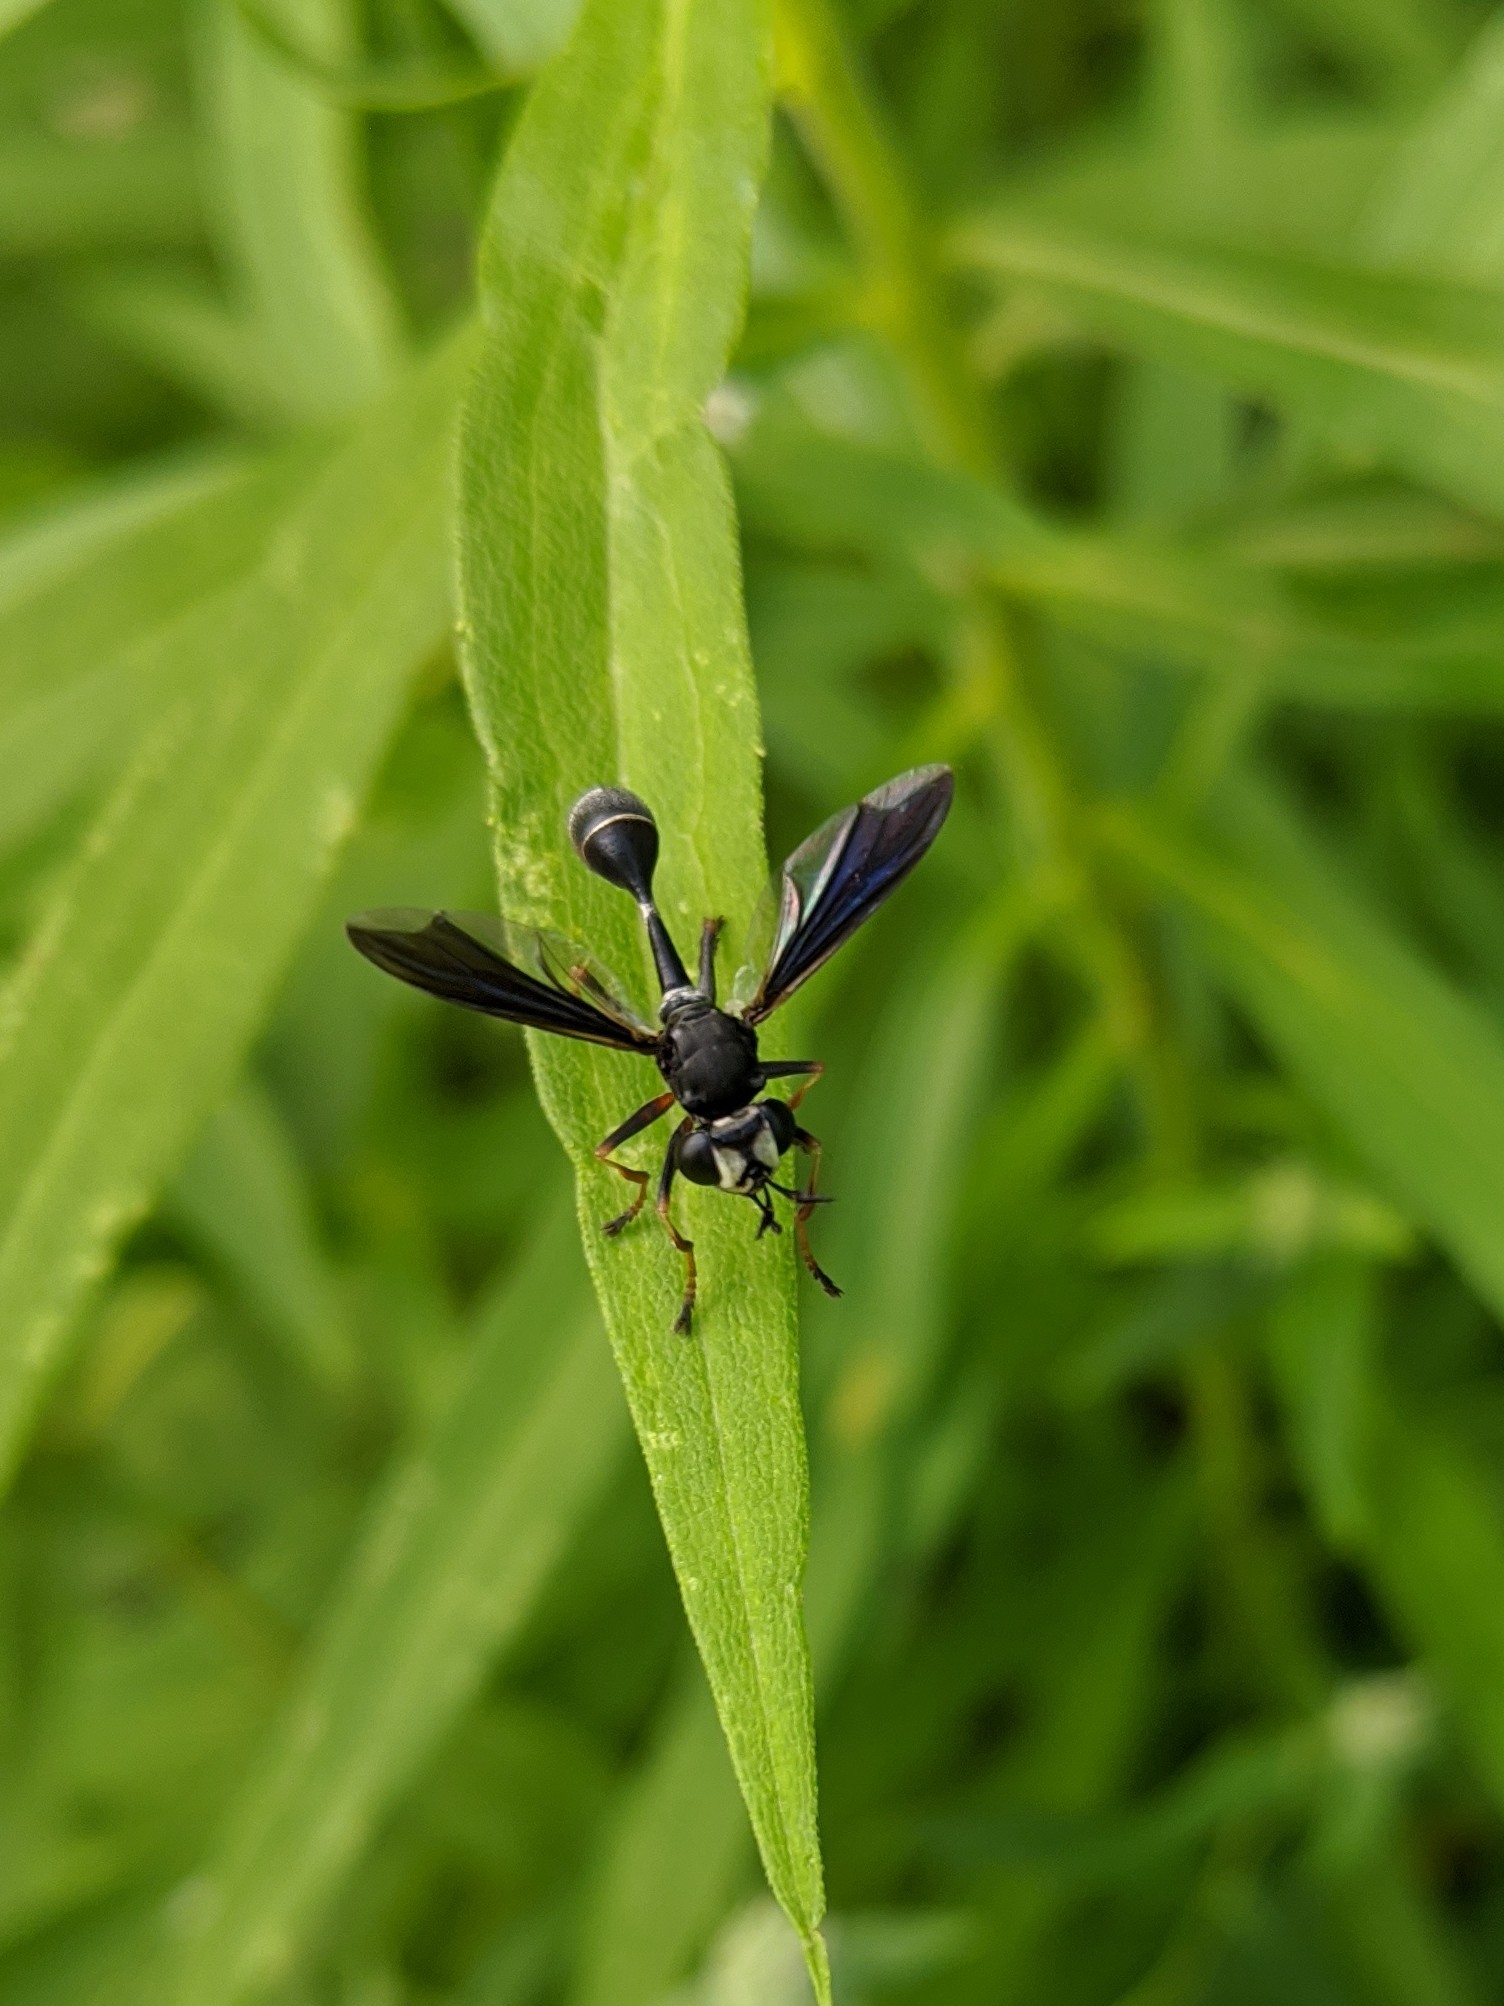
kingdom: Animalia
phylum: Arthropoda
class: Insecta
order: Diptera
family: Conopidae
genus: Physocephala
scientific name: Physocephala tibialis
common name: Common eastern physocephala
